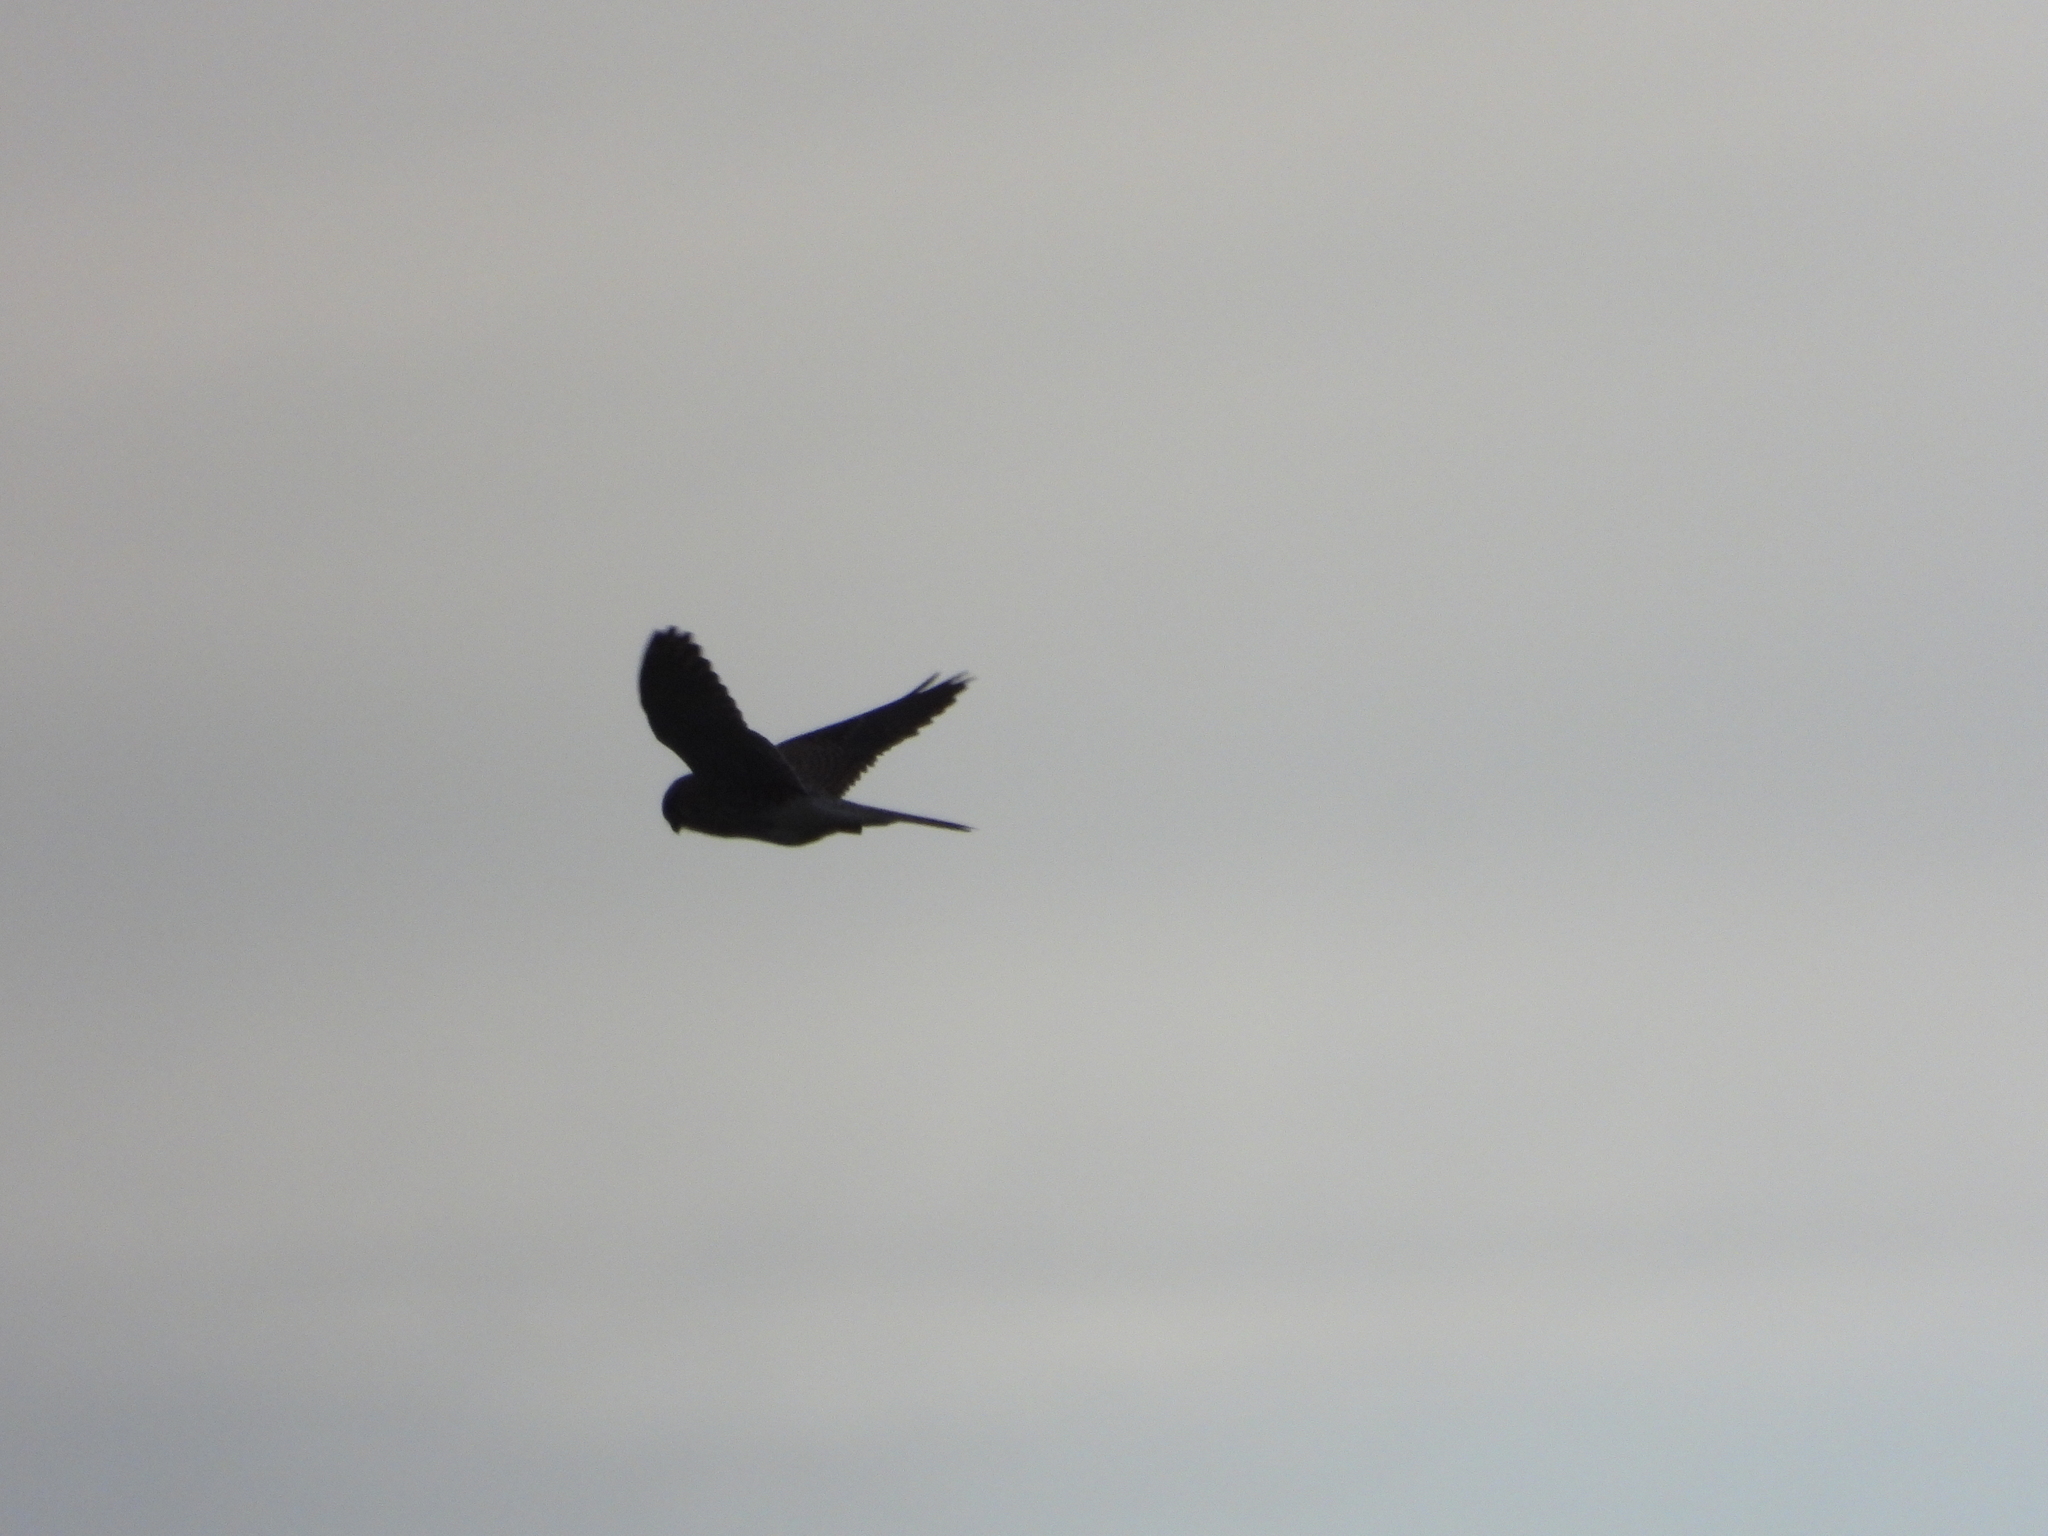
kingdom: Animalia
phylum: Chordata
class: Aves
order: Falconiformes
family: Falconidae
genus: Falco
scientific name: Falco tinnunculus
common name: Common kestrel
